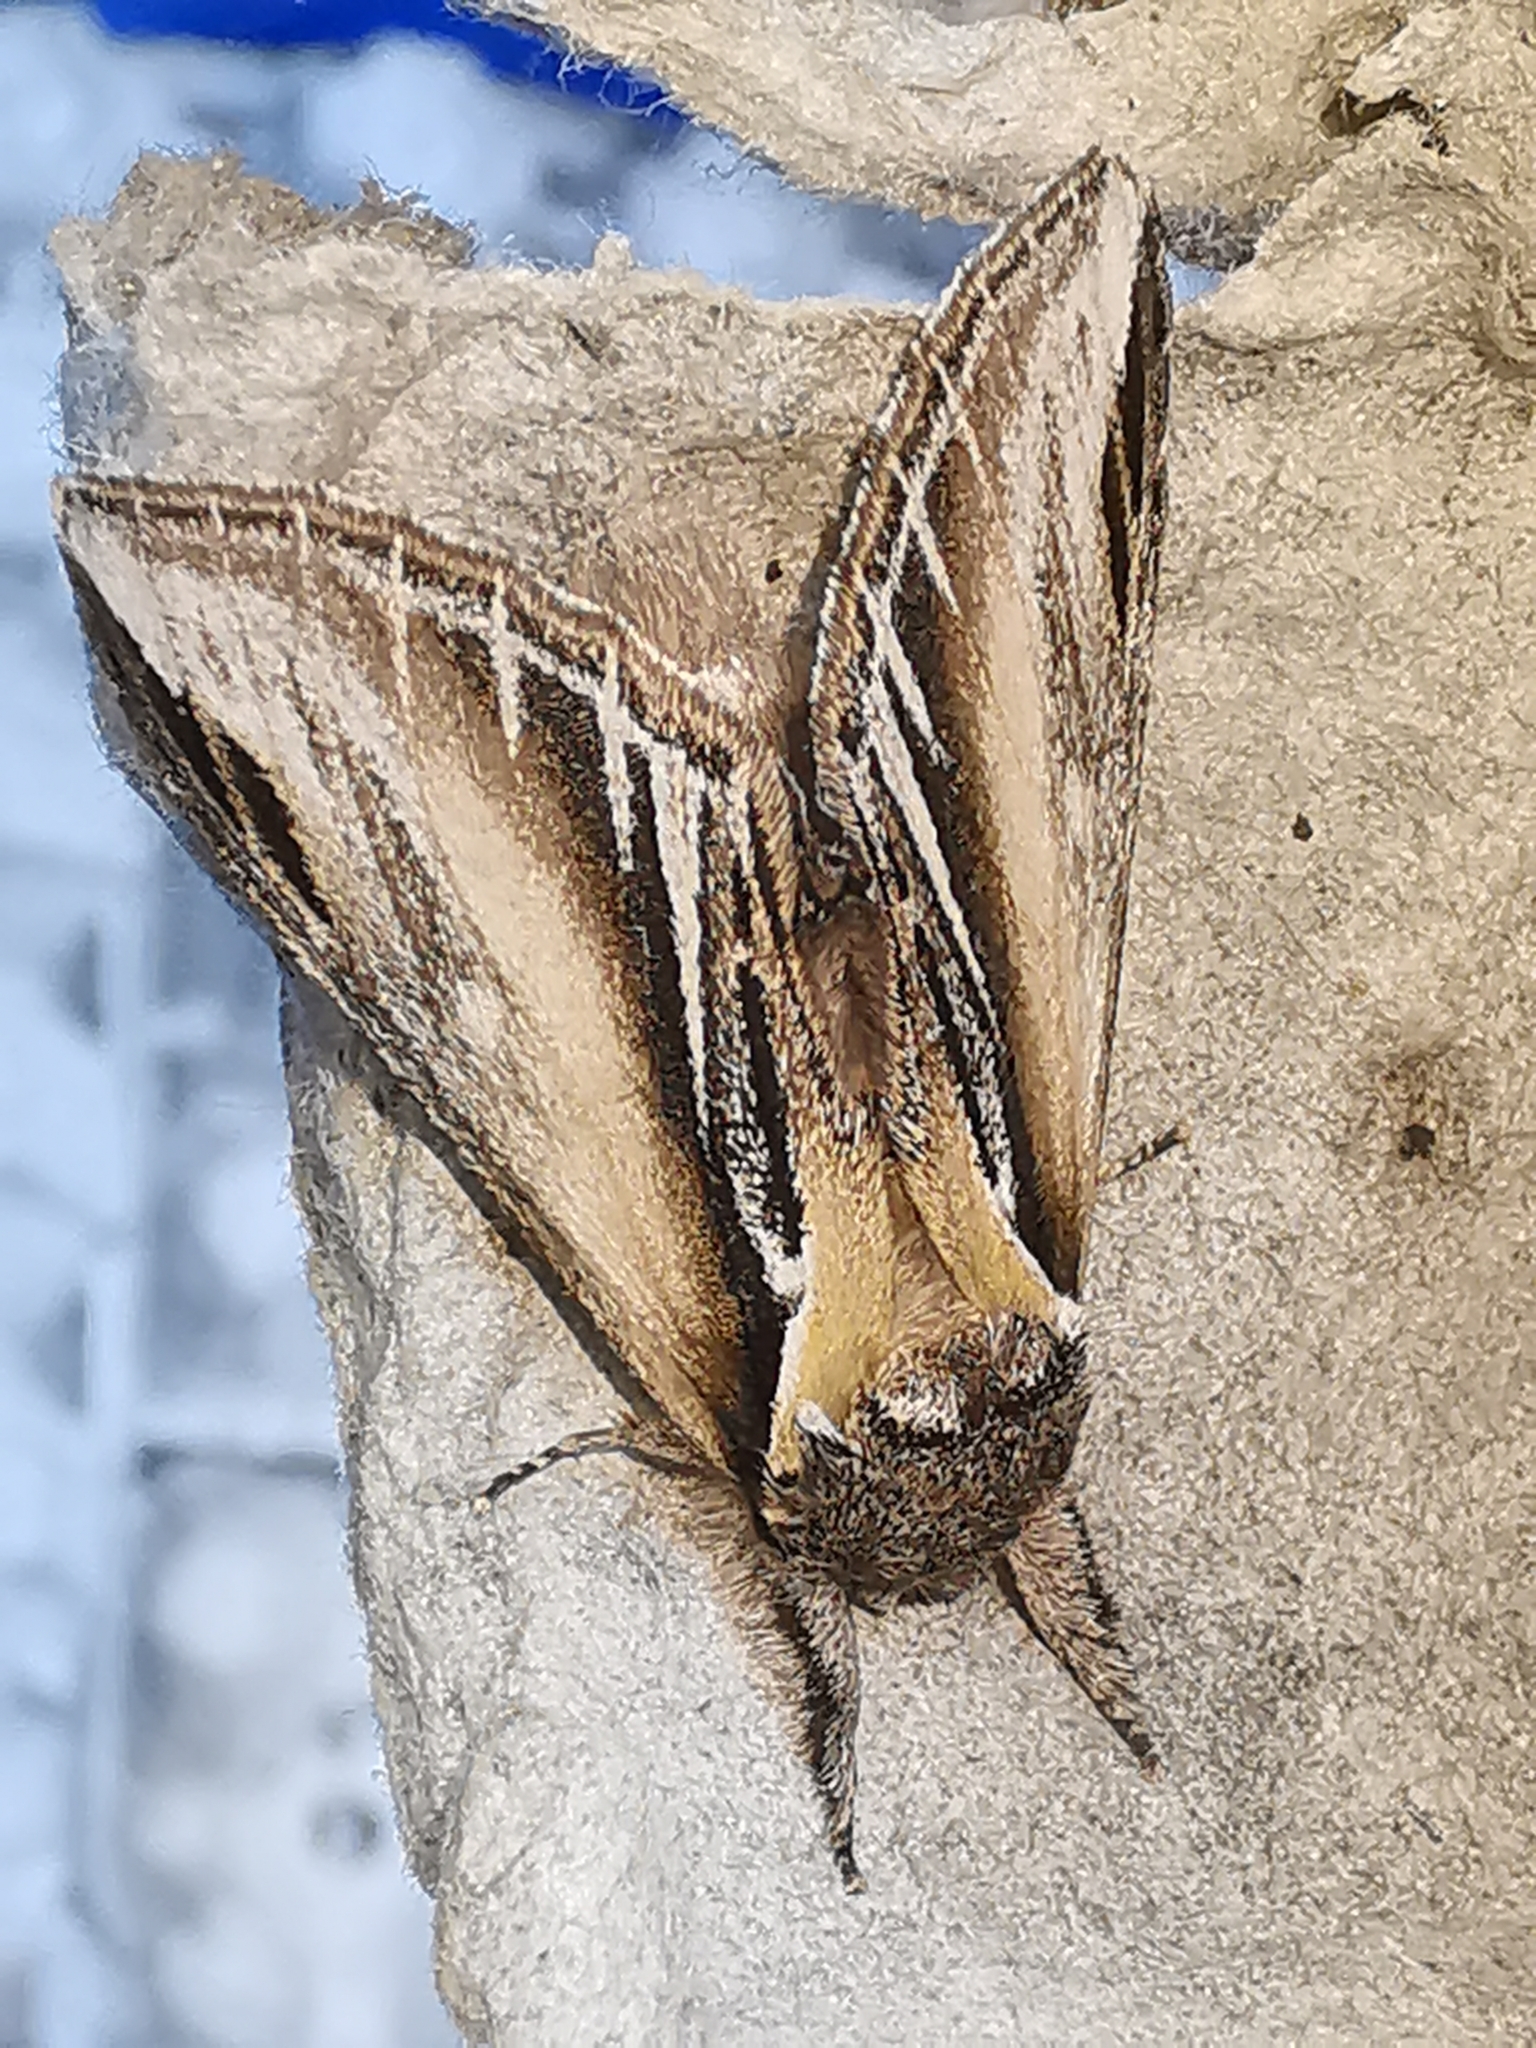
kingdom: Animalia
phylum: Arthropoda
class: Insecta
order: Lepidoptera
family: Notodontidae
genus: Pheosia
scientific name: Pheosia tremula
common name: Swallow prominent
